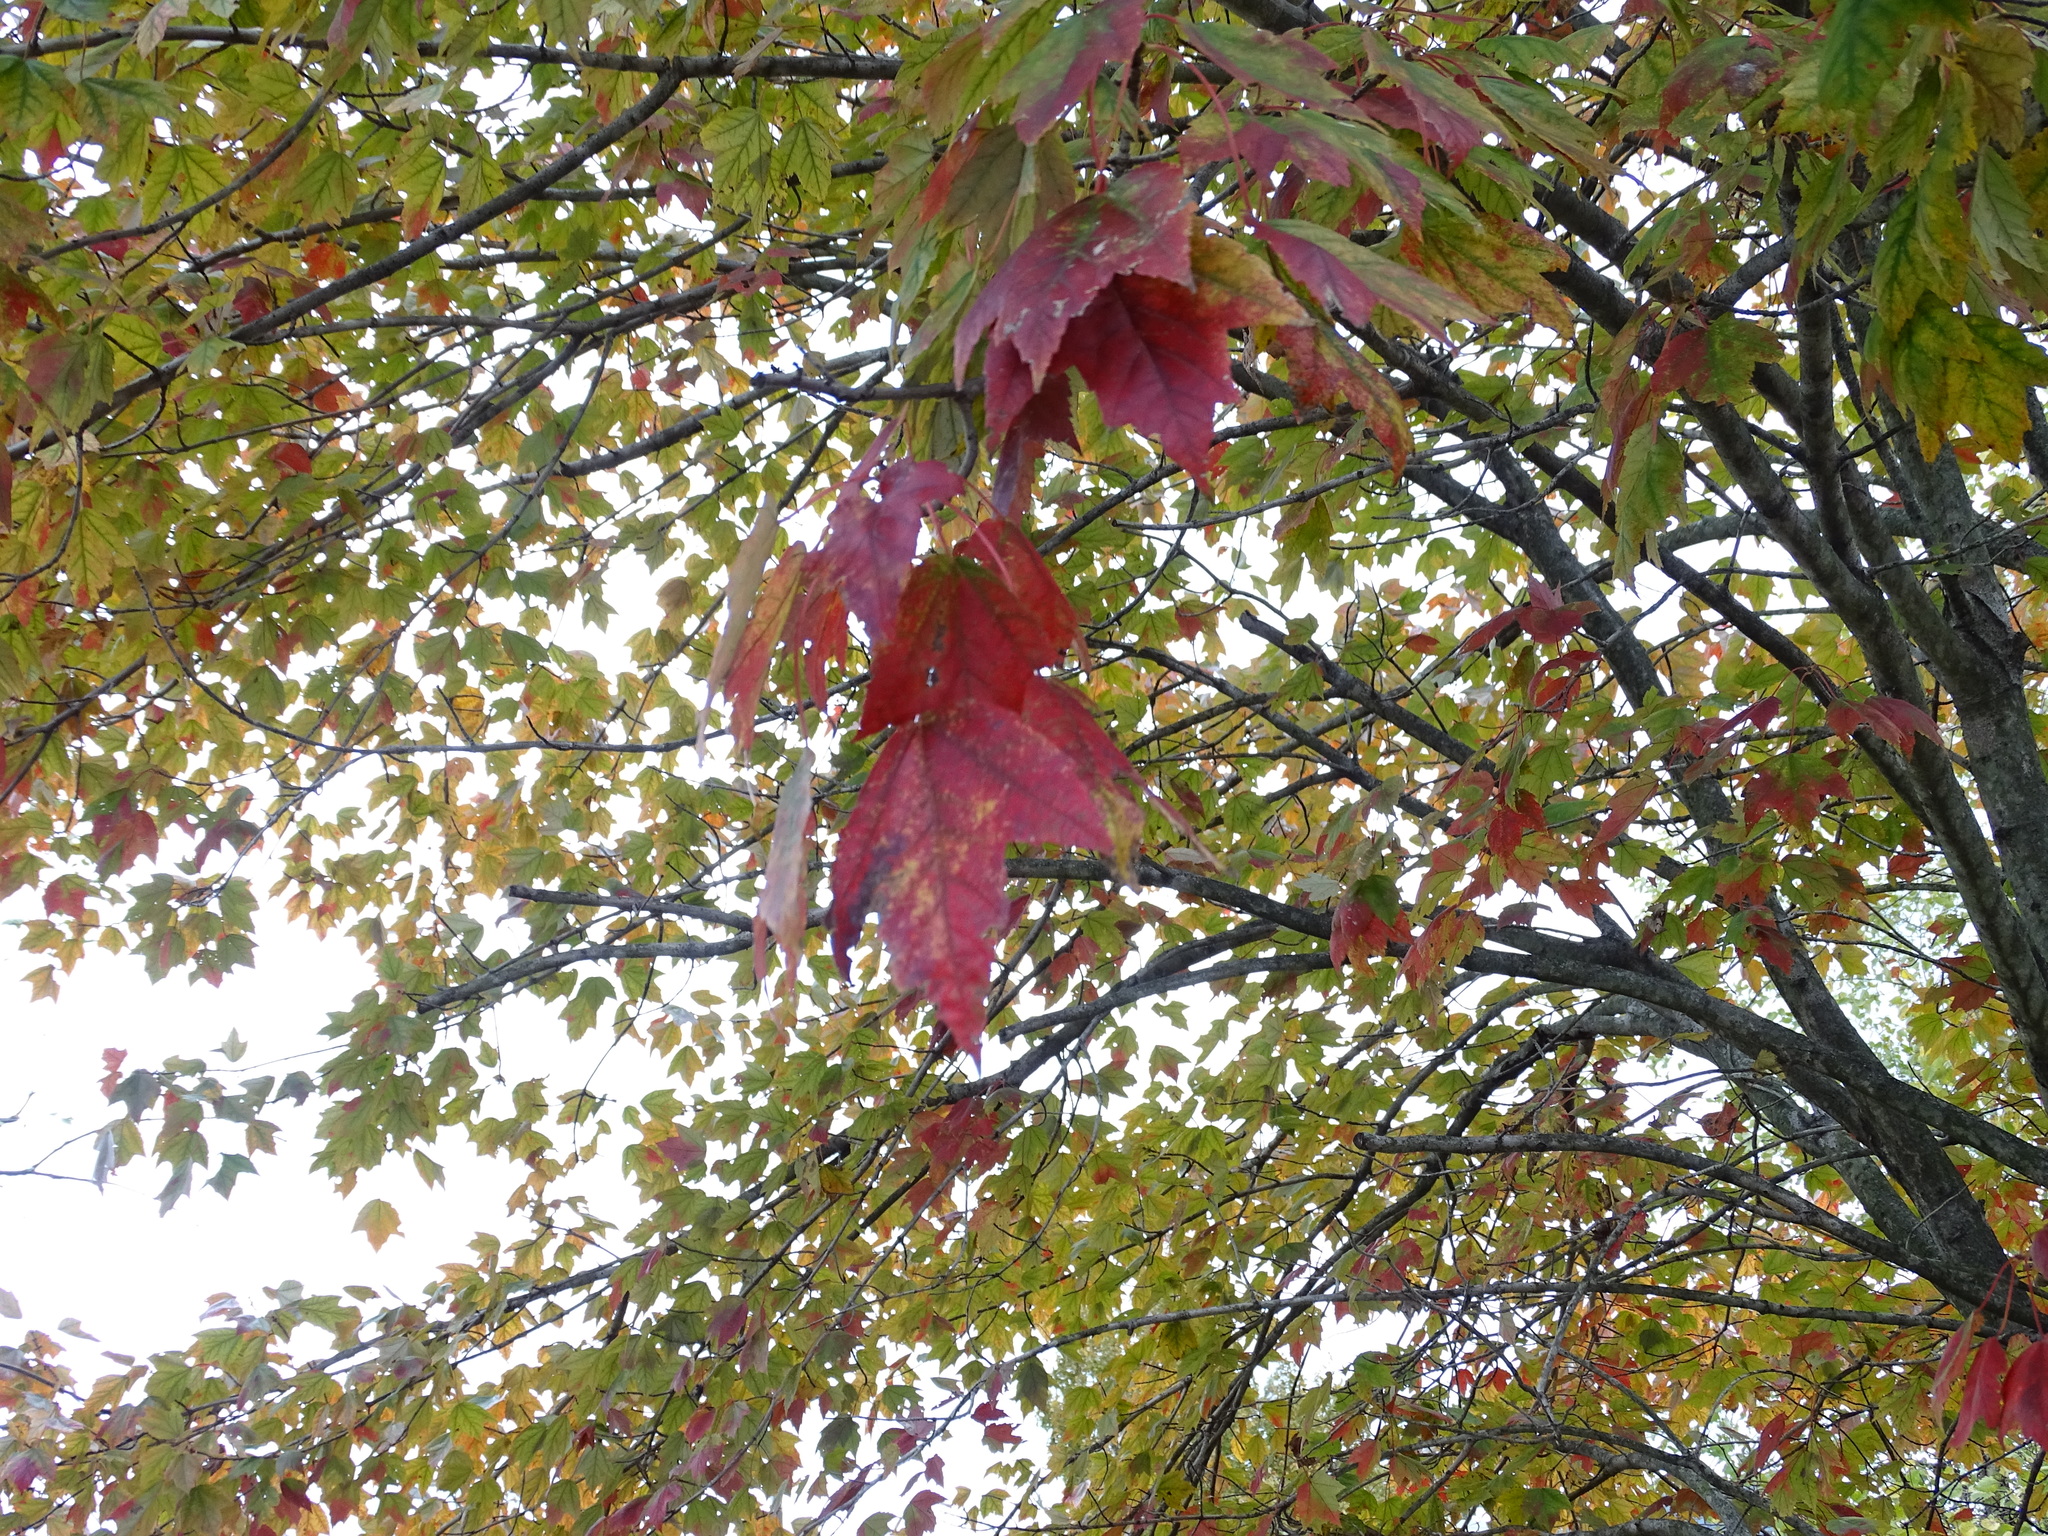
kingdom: Plantae
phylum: Tracheophyta
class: Magnoliopsida
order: Sapindales
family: Sapindaceae
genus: Acer
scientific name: Acer rubrum
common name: Red maple
